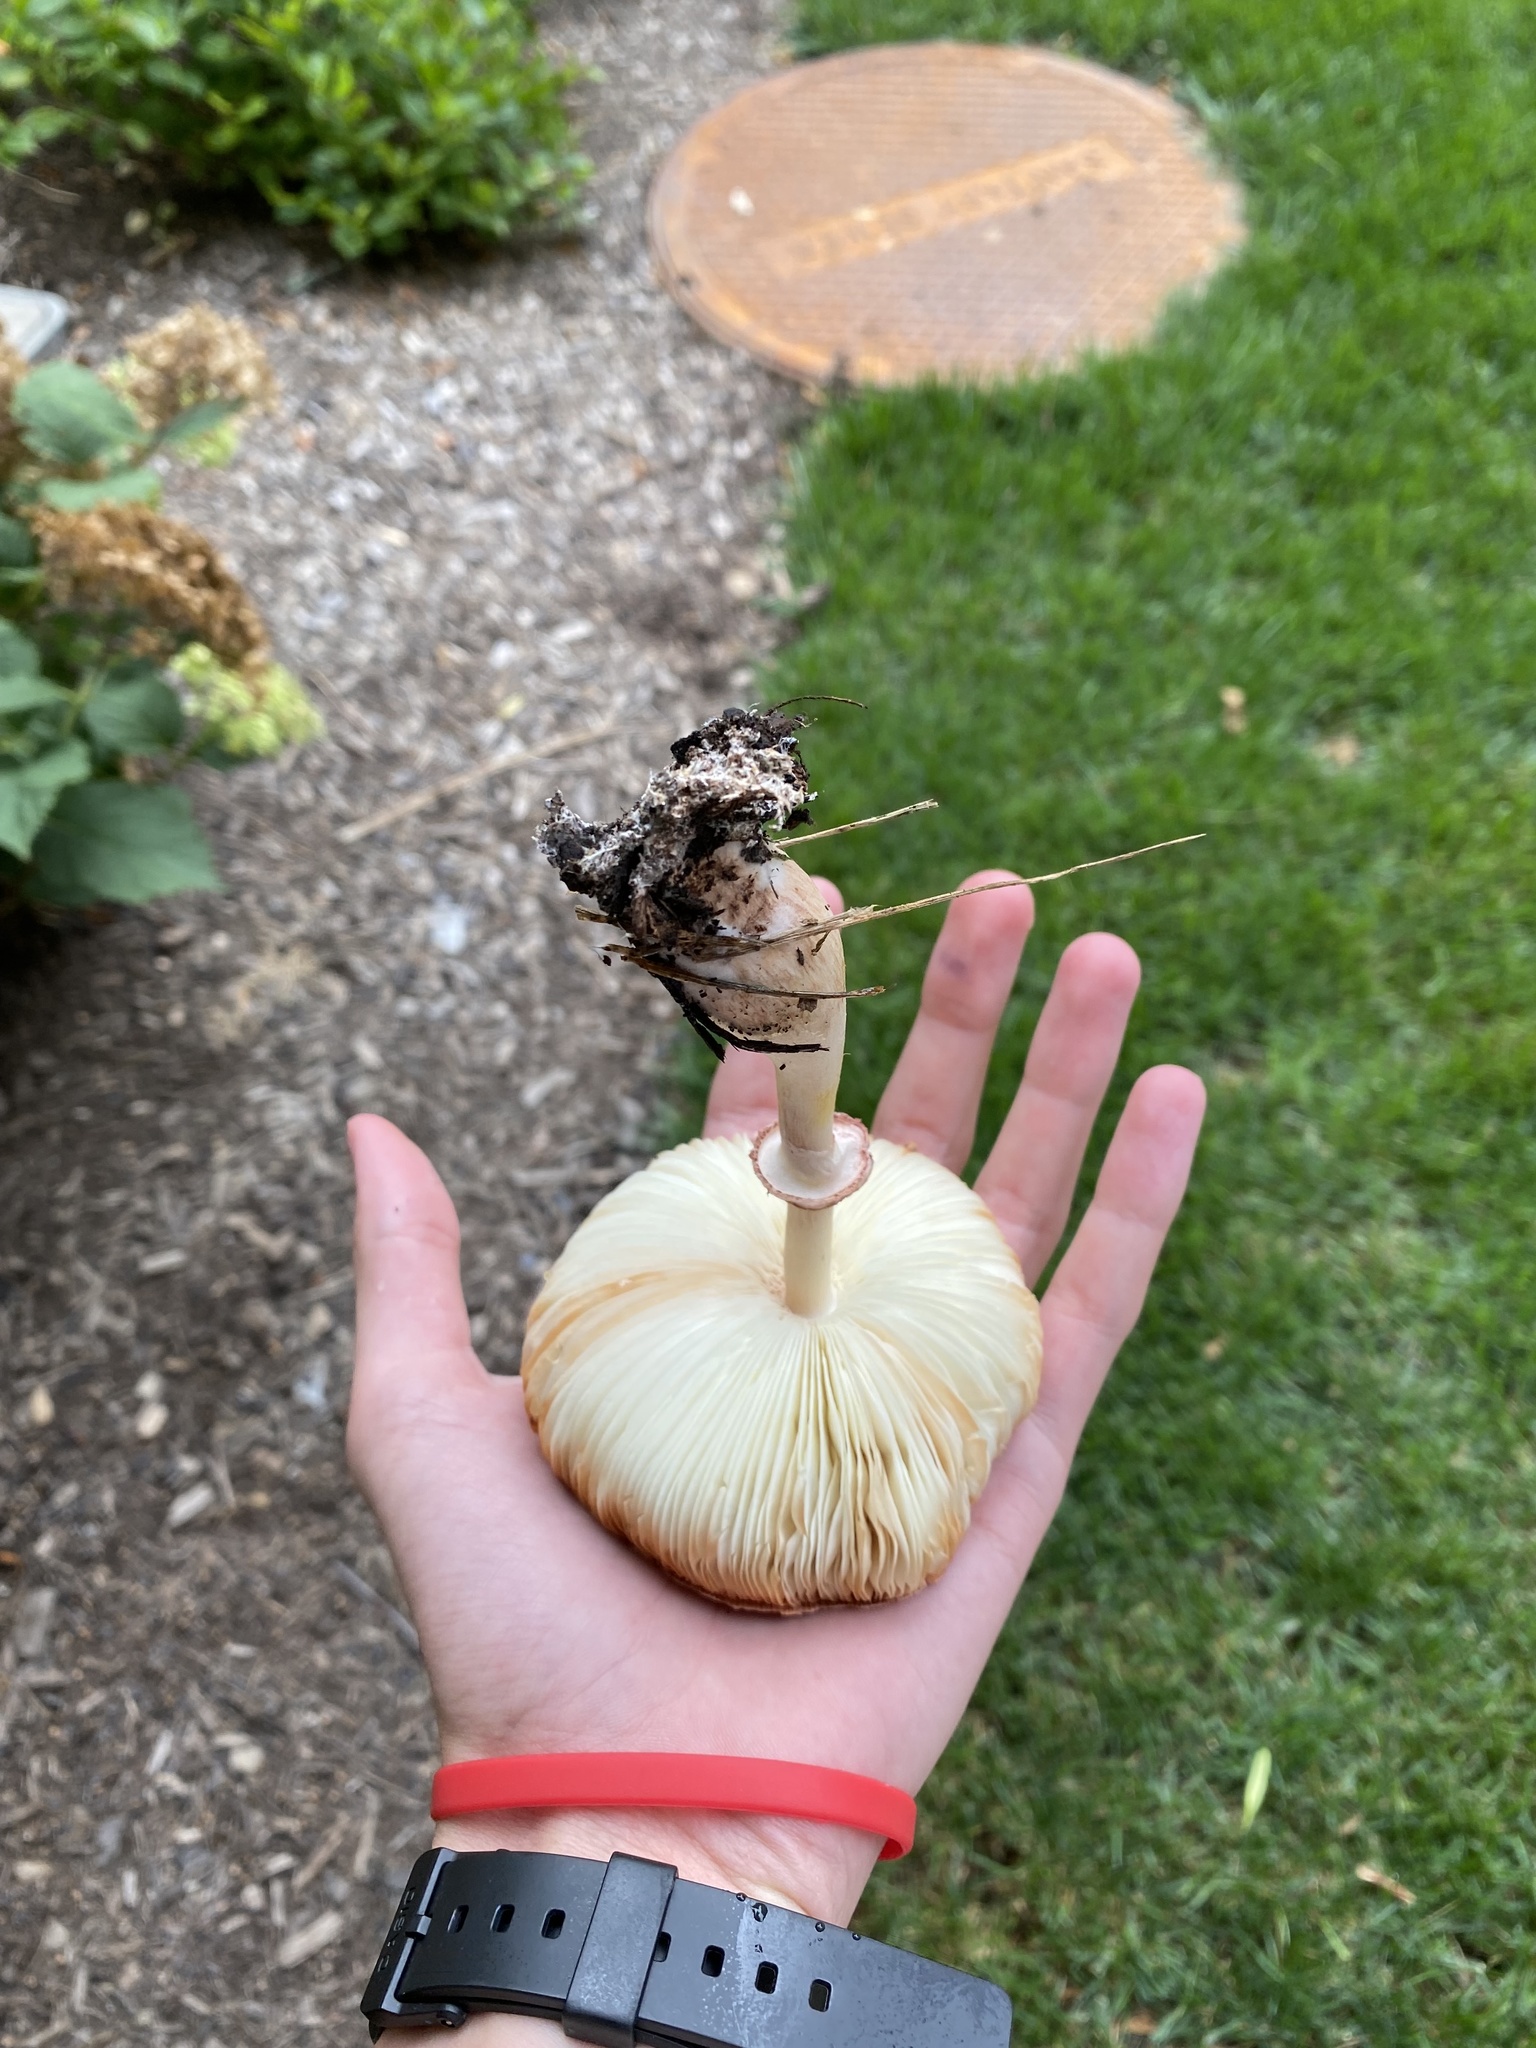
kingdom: Fungi
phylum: Basidiomycota
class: Agaricomycetes
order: Agaricales
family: Agaricaceae
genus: Leucoagaricus
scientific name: Leucoagaricus americanus
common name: Reddening lepiota
